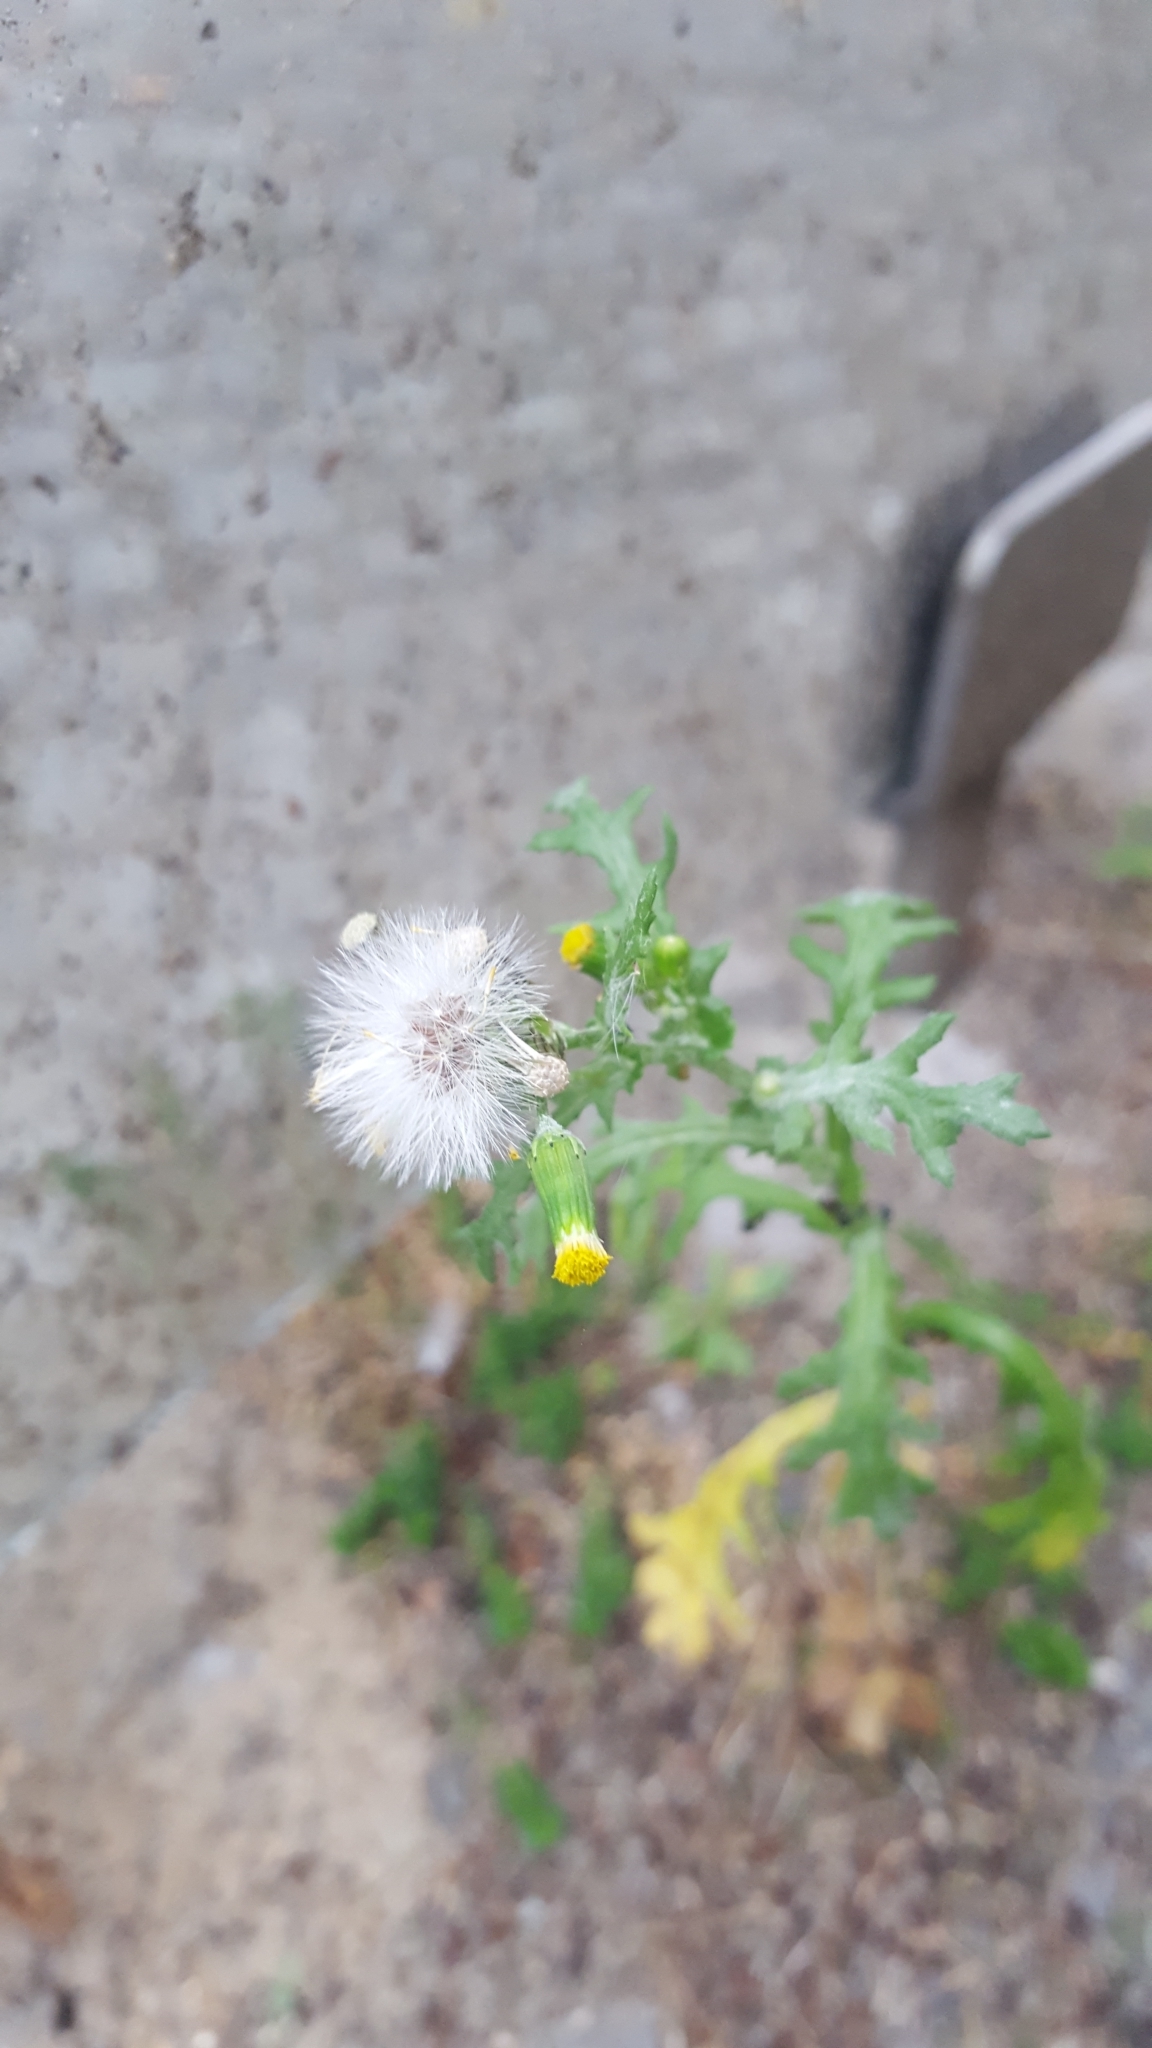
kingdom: Plantae
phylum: Tracheophyta
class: Magnoliopsida
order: Asterales
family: Asteraceae
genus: Senecio
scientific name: Senecio vulgaris
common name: Old-man-in-the-spring
